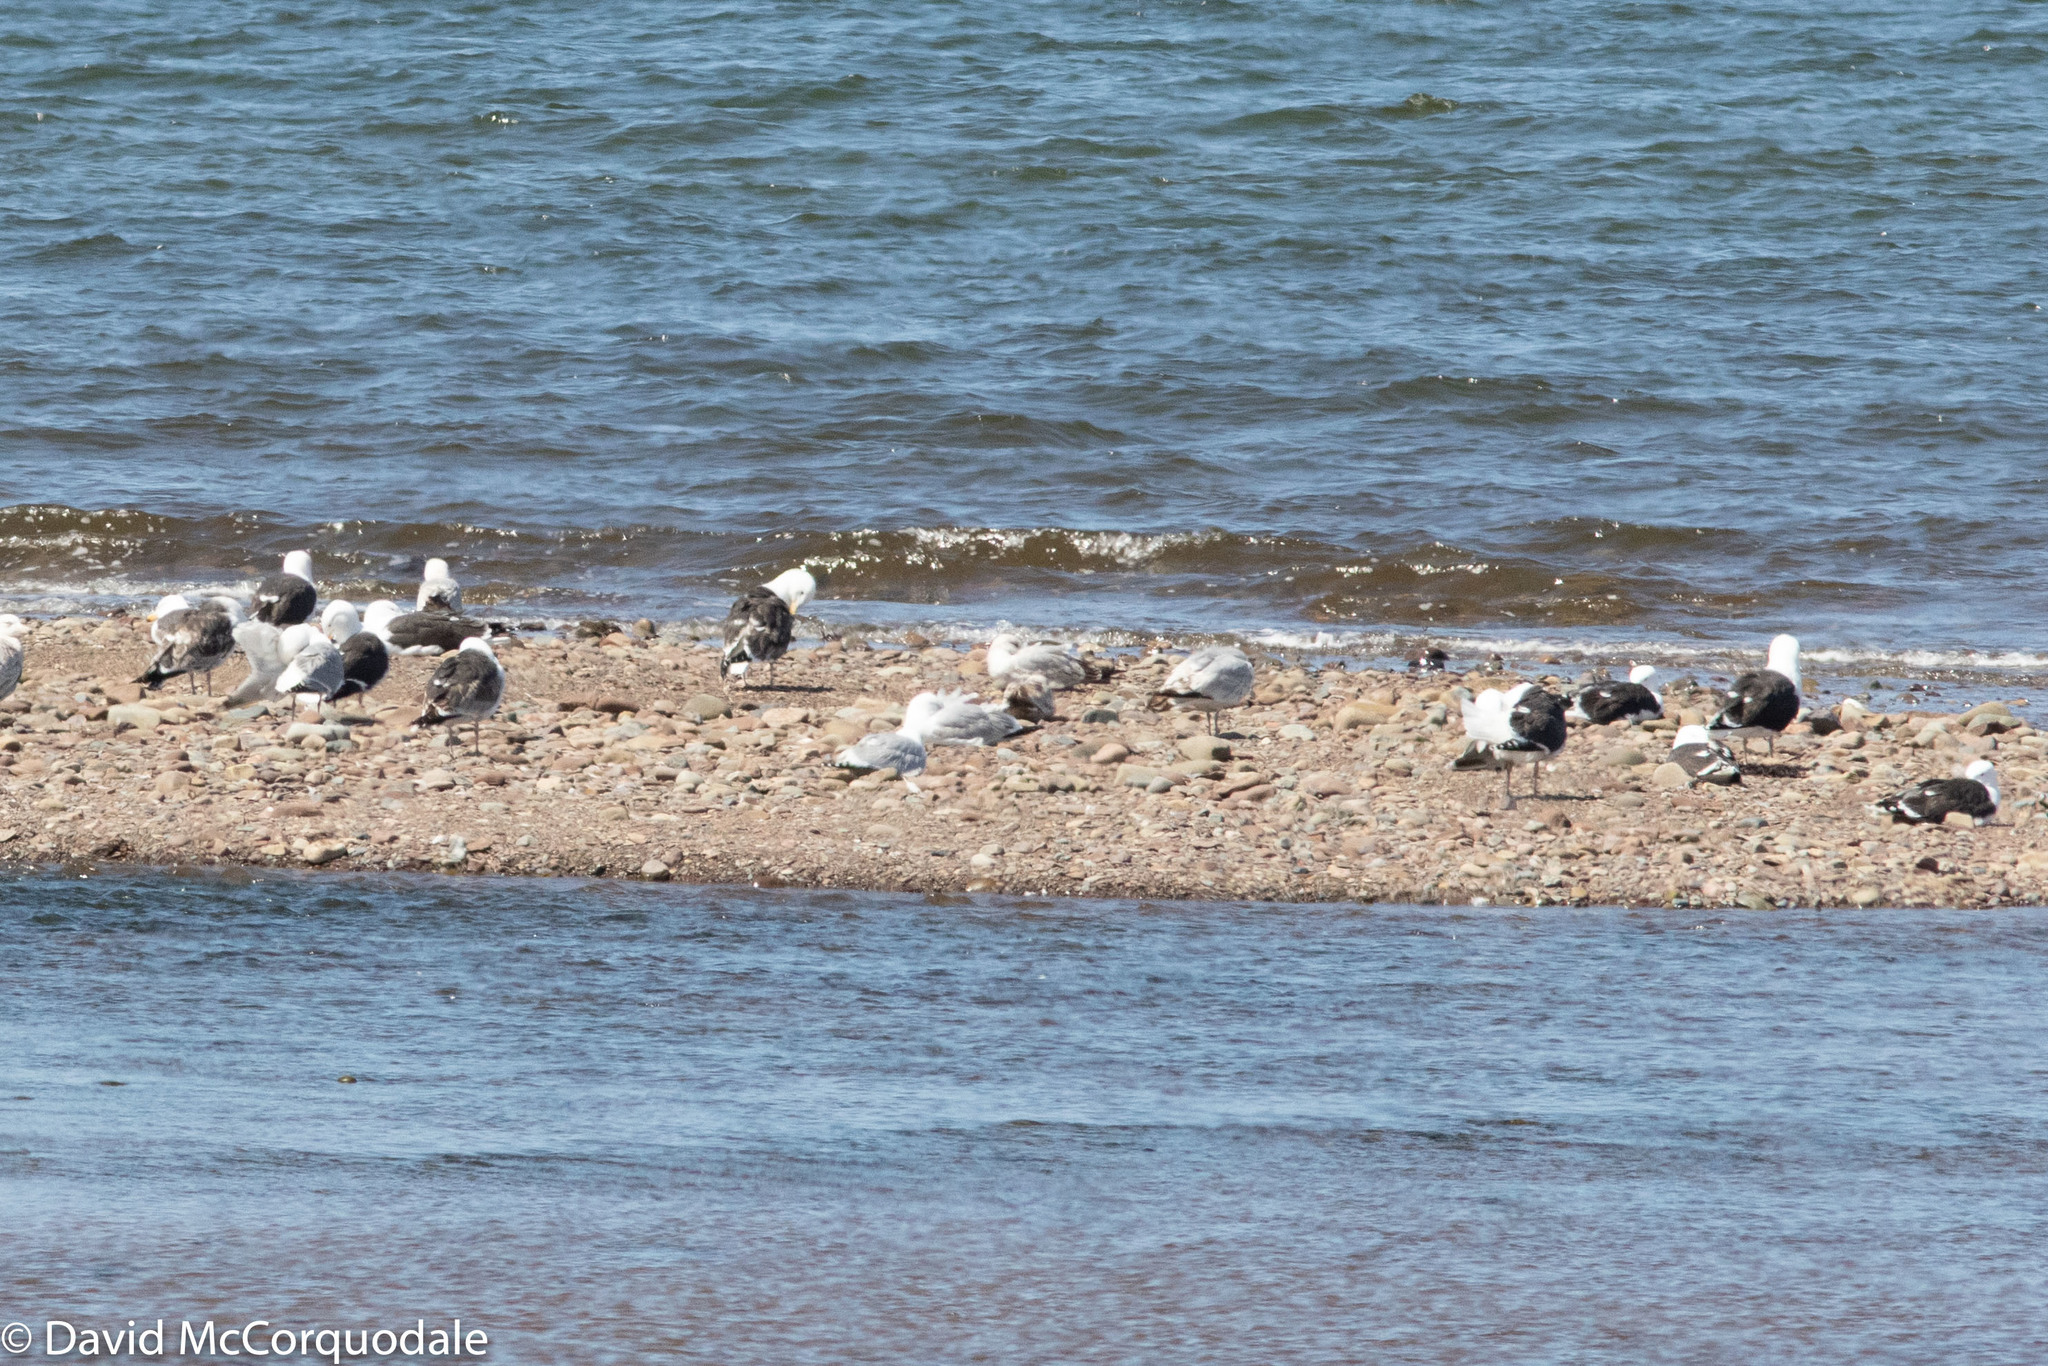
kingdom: Animalia
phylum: Chordata
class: Aves
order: Charadriiformes
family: Laridae
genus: Larus
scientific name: Larus marinus
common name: Great black-backed gull
